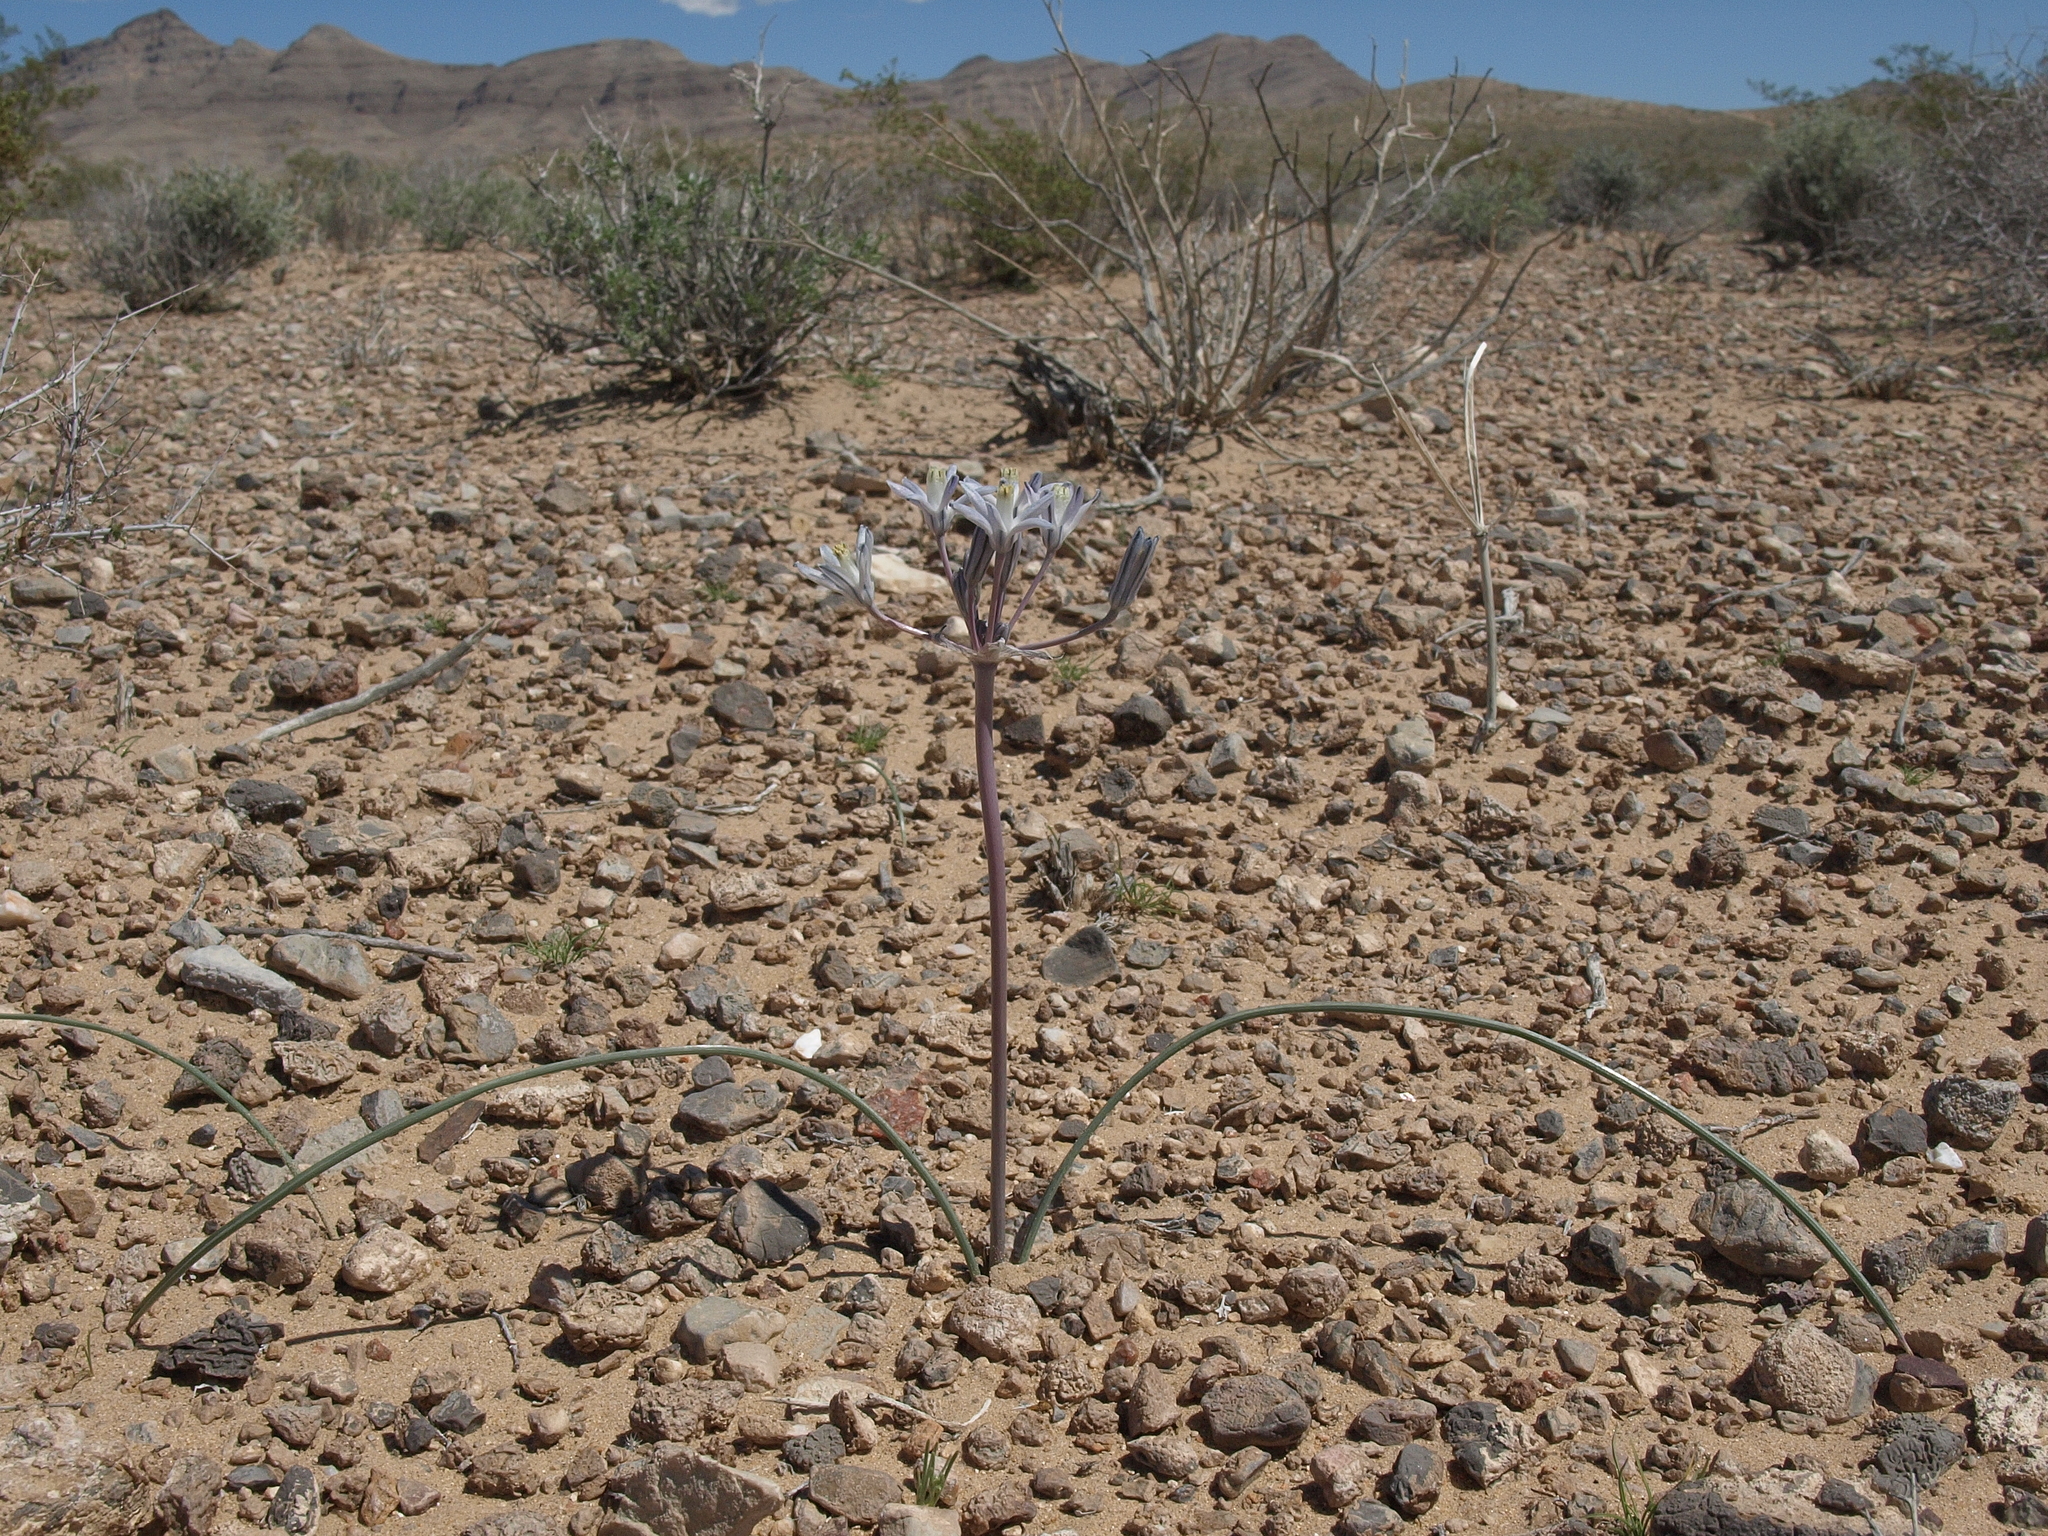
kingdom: Plantae
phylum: Tracheophyta
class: Liliopsida
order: Asparagales
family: Asparagaceae
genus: Androstephium
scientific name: Androstephium breviflorum
